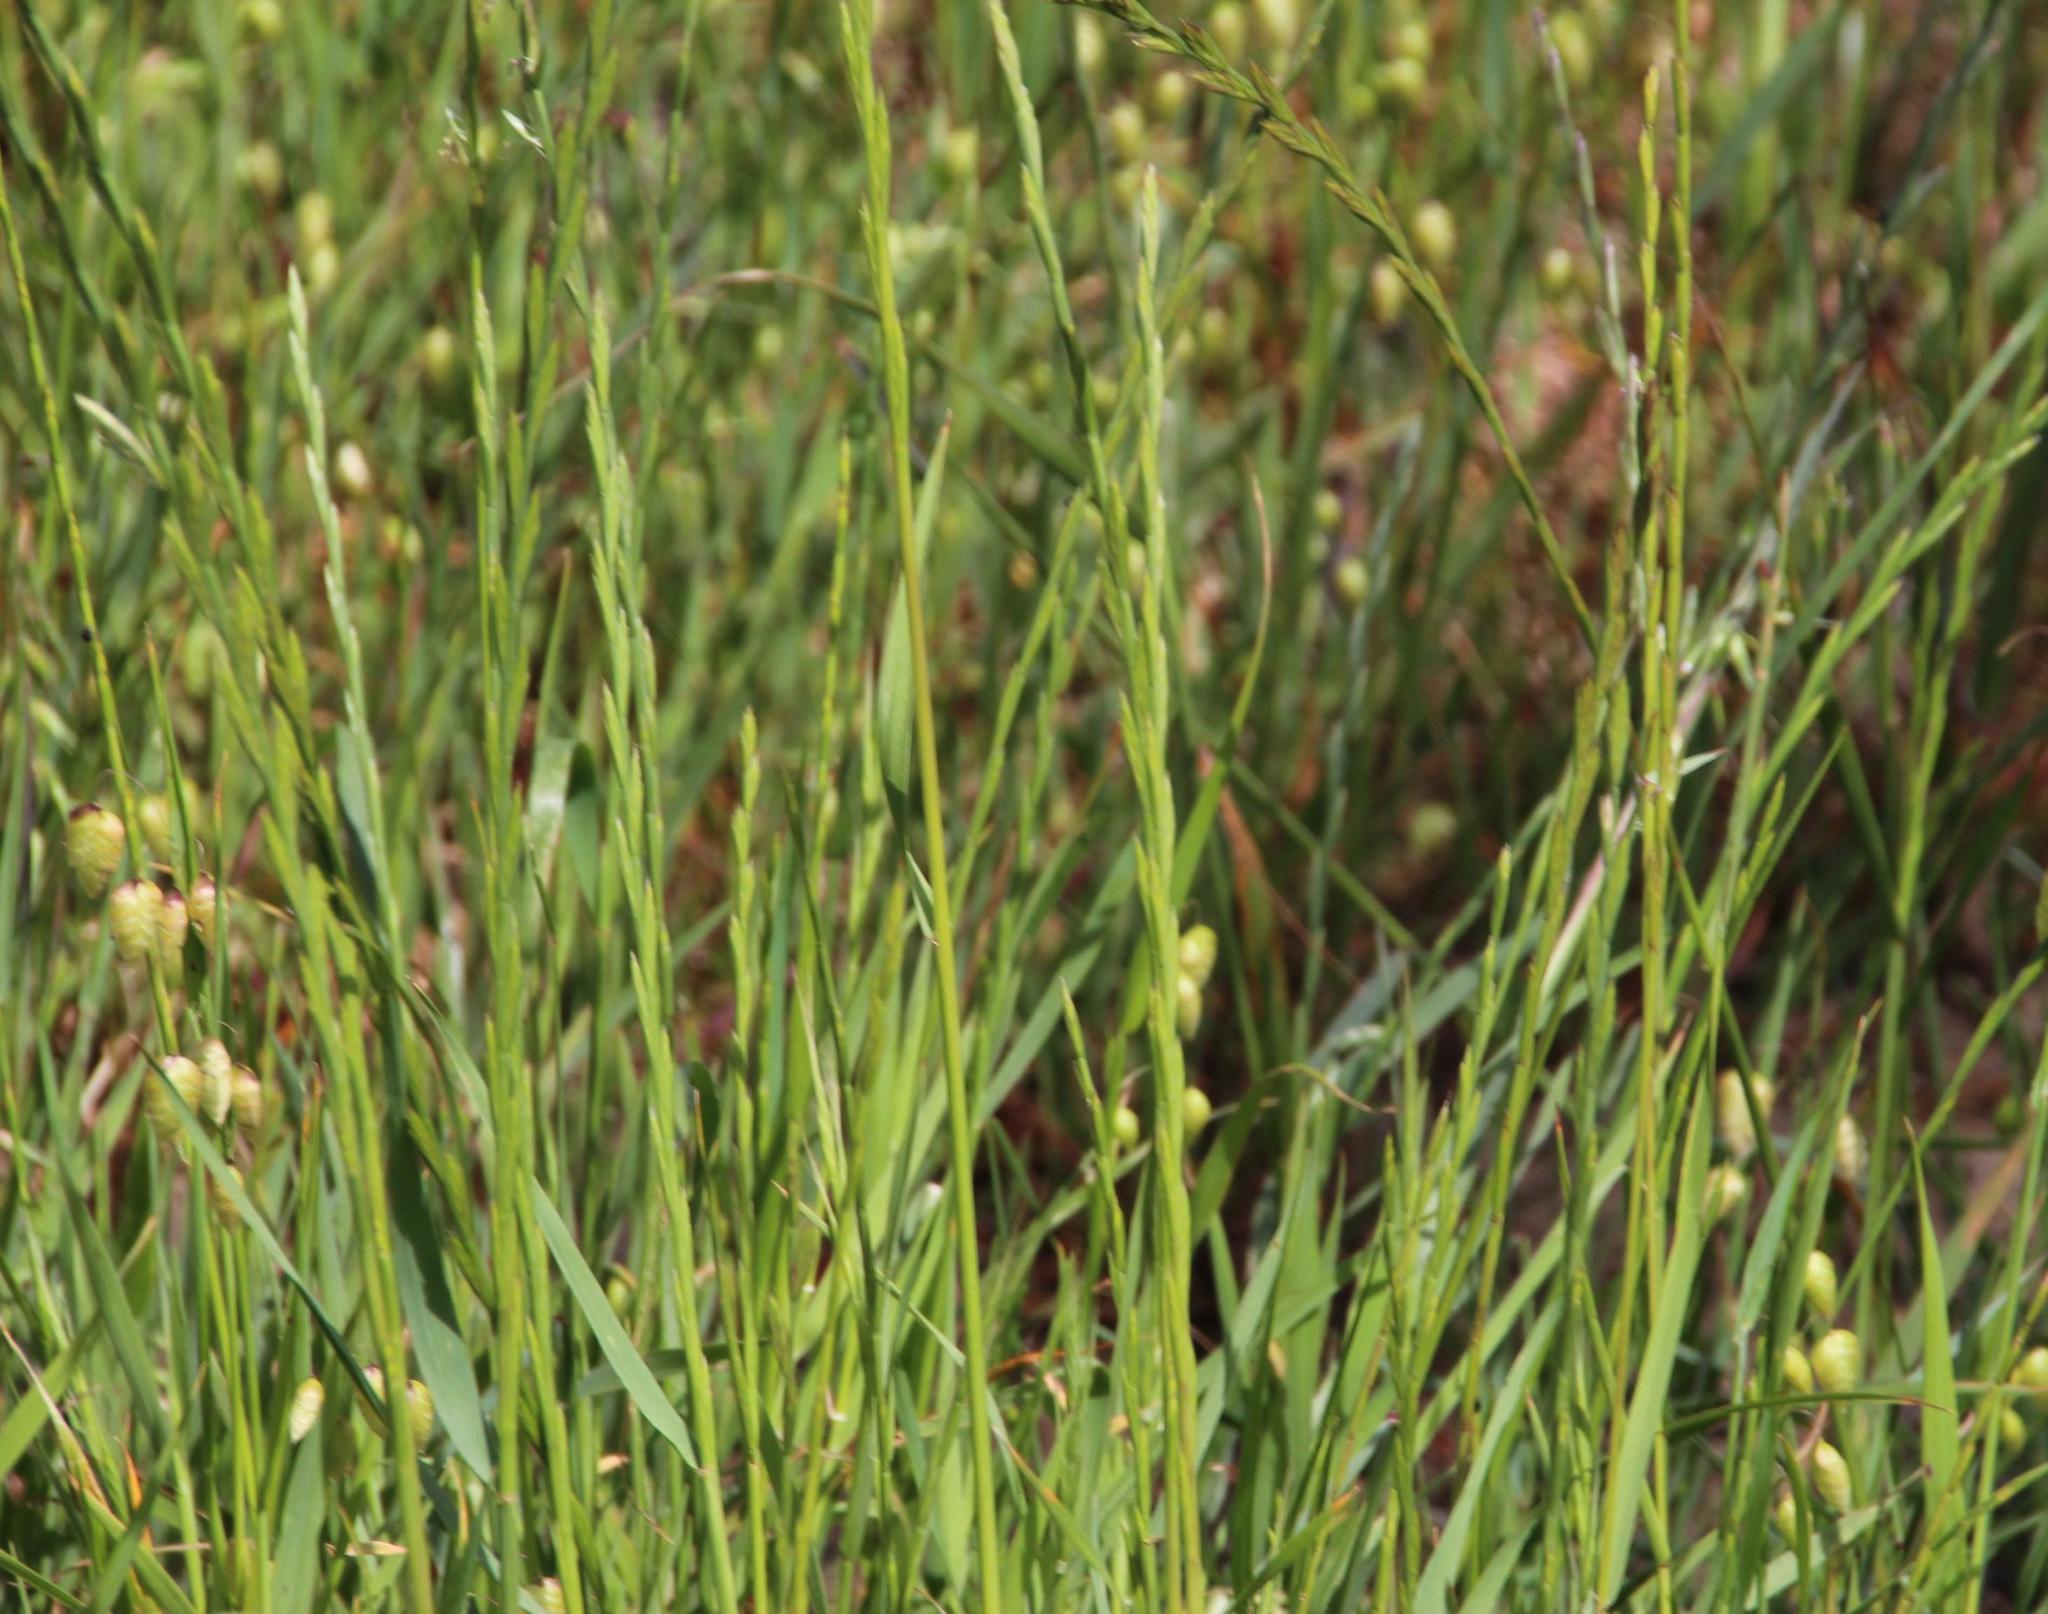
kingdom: Plantae
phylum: Tracheophyta
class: Liliopsida
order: Poales
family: Poaceae
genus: Lolium
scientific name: Lolium multiflorum
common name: Annual ryegrass
